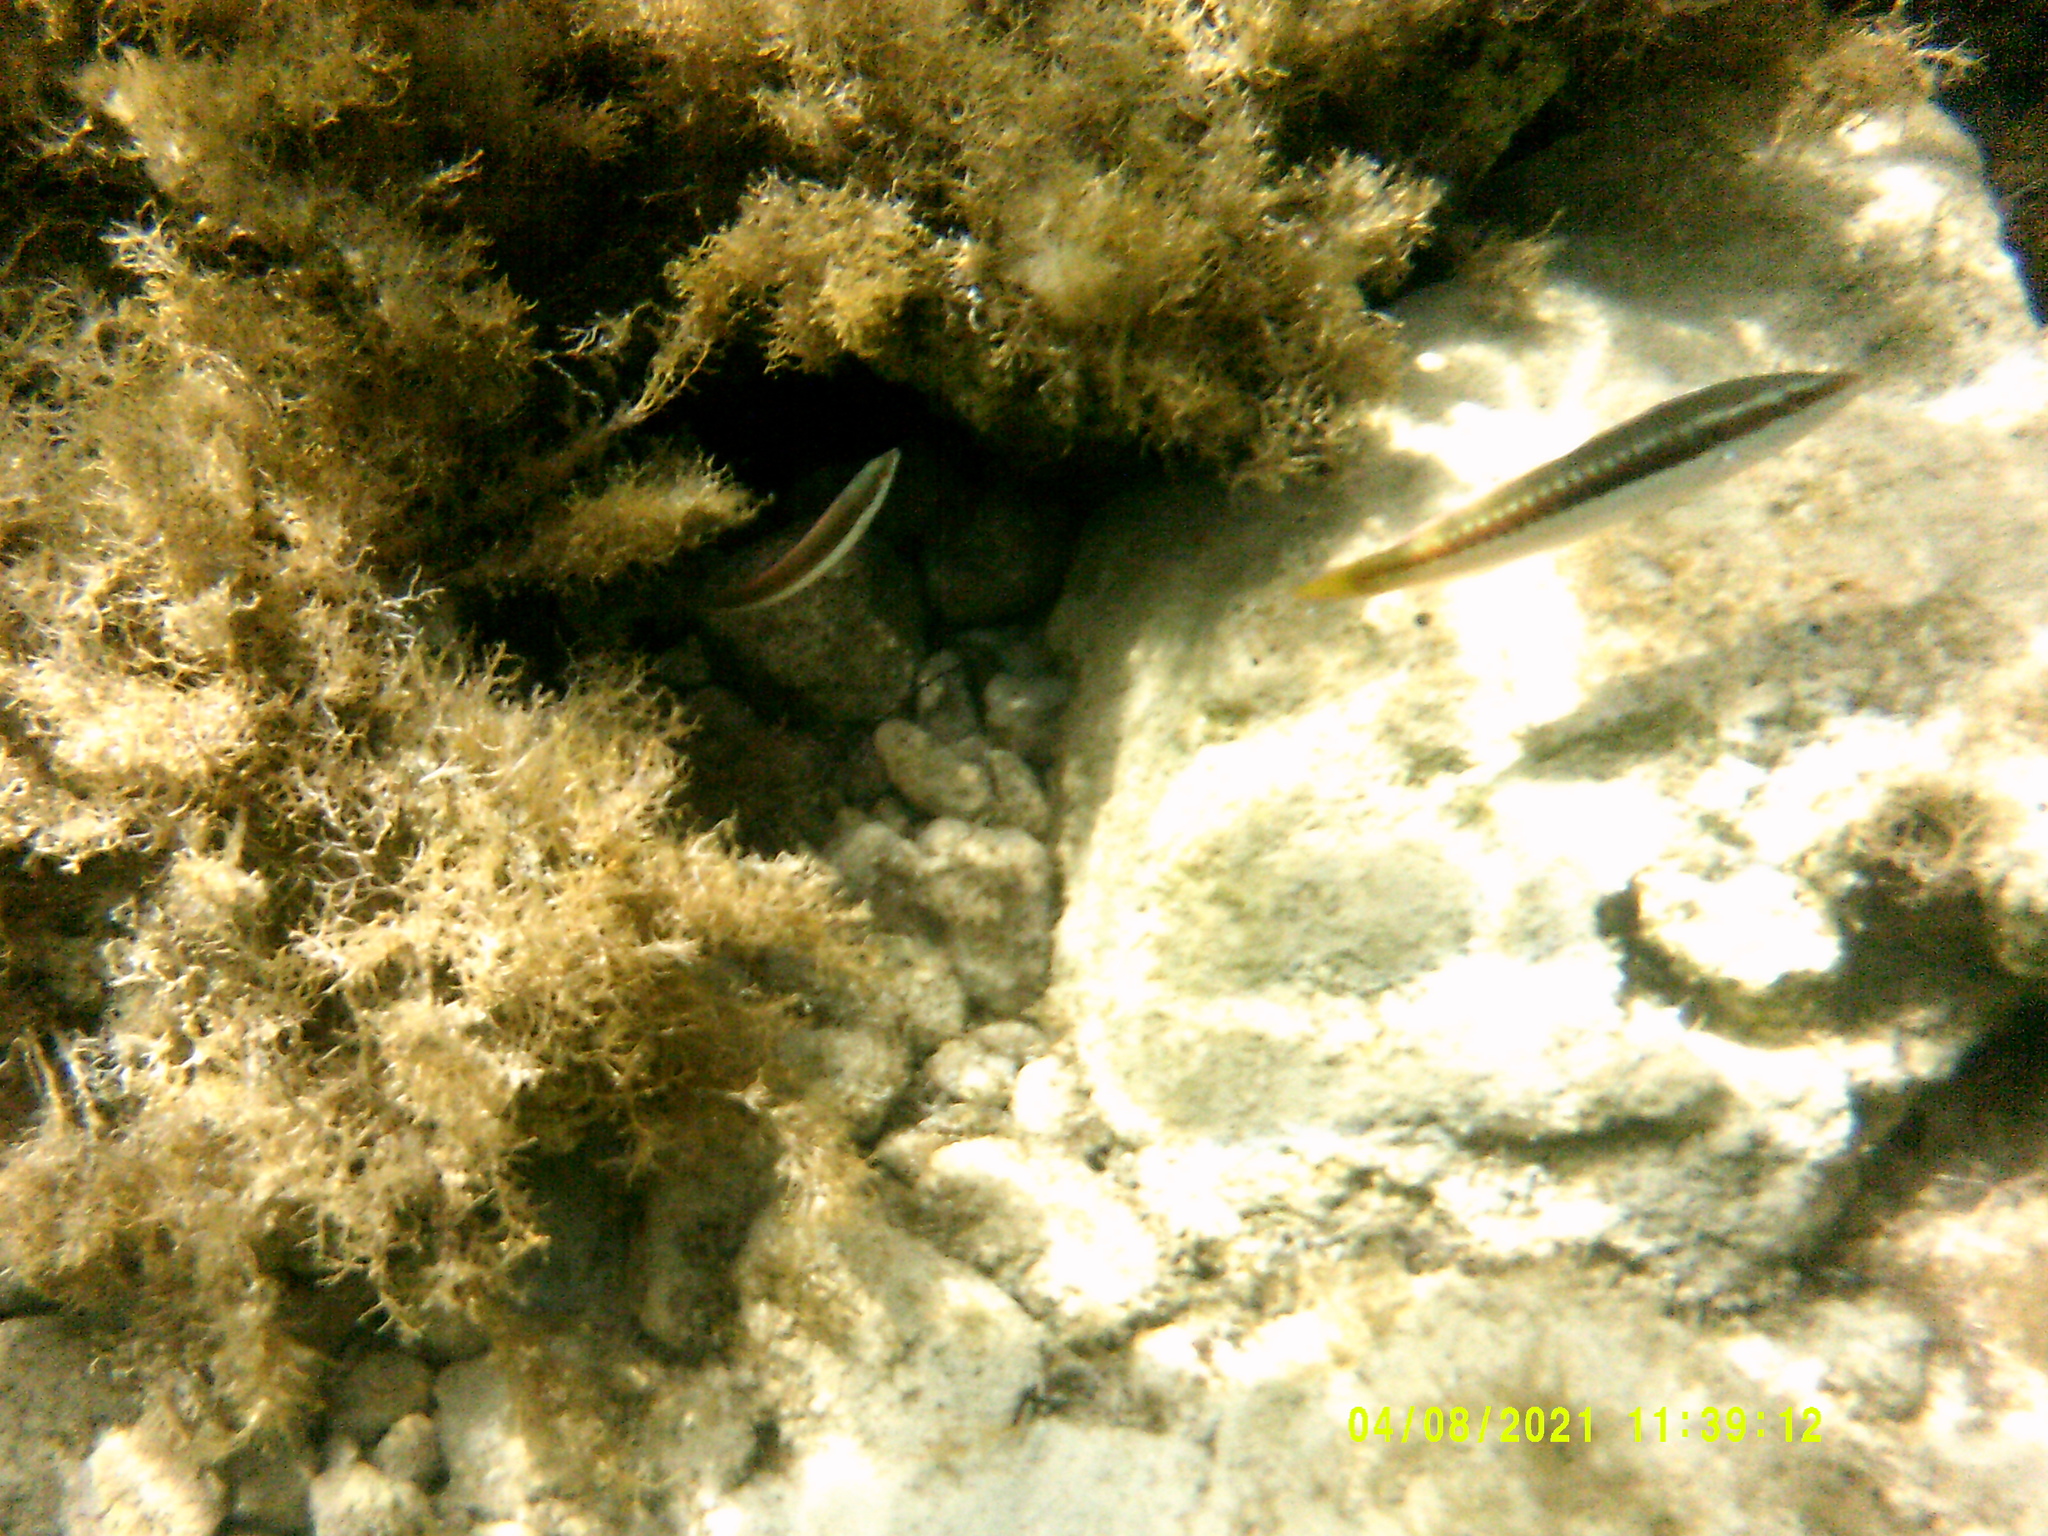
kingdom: Animalia
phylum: Chordata
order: Perciformes
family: Labridae
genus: Coris
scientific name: Coris julis
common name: Rainbow wrasse
